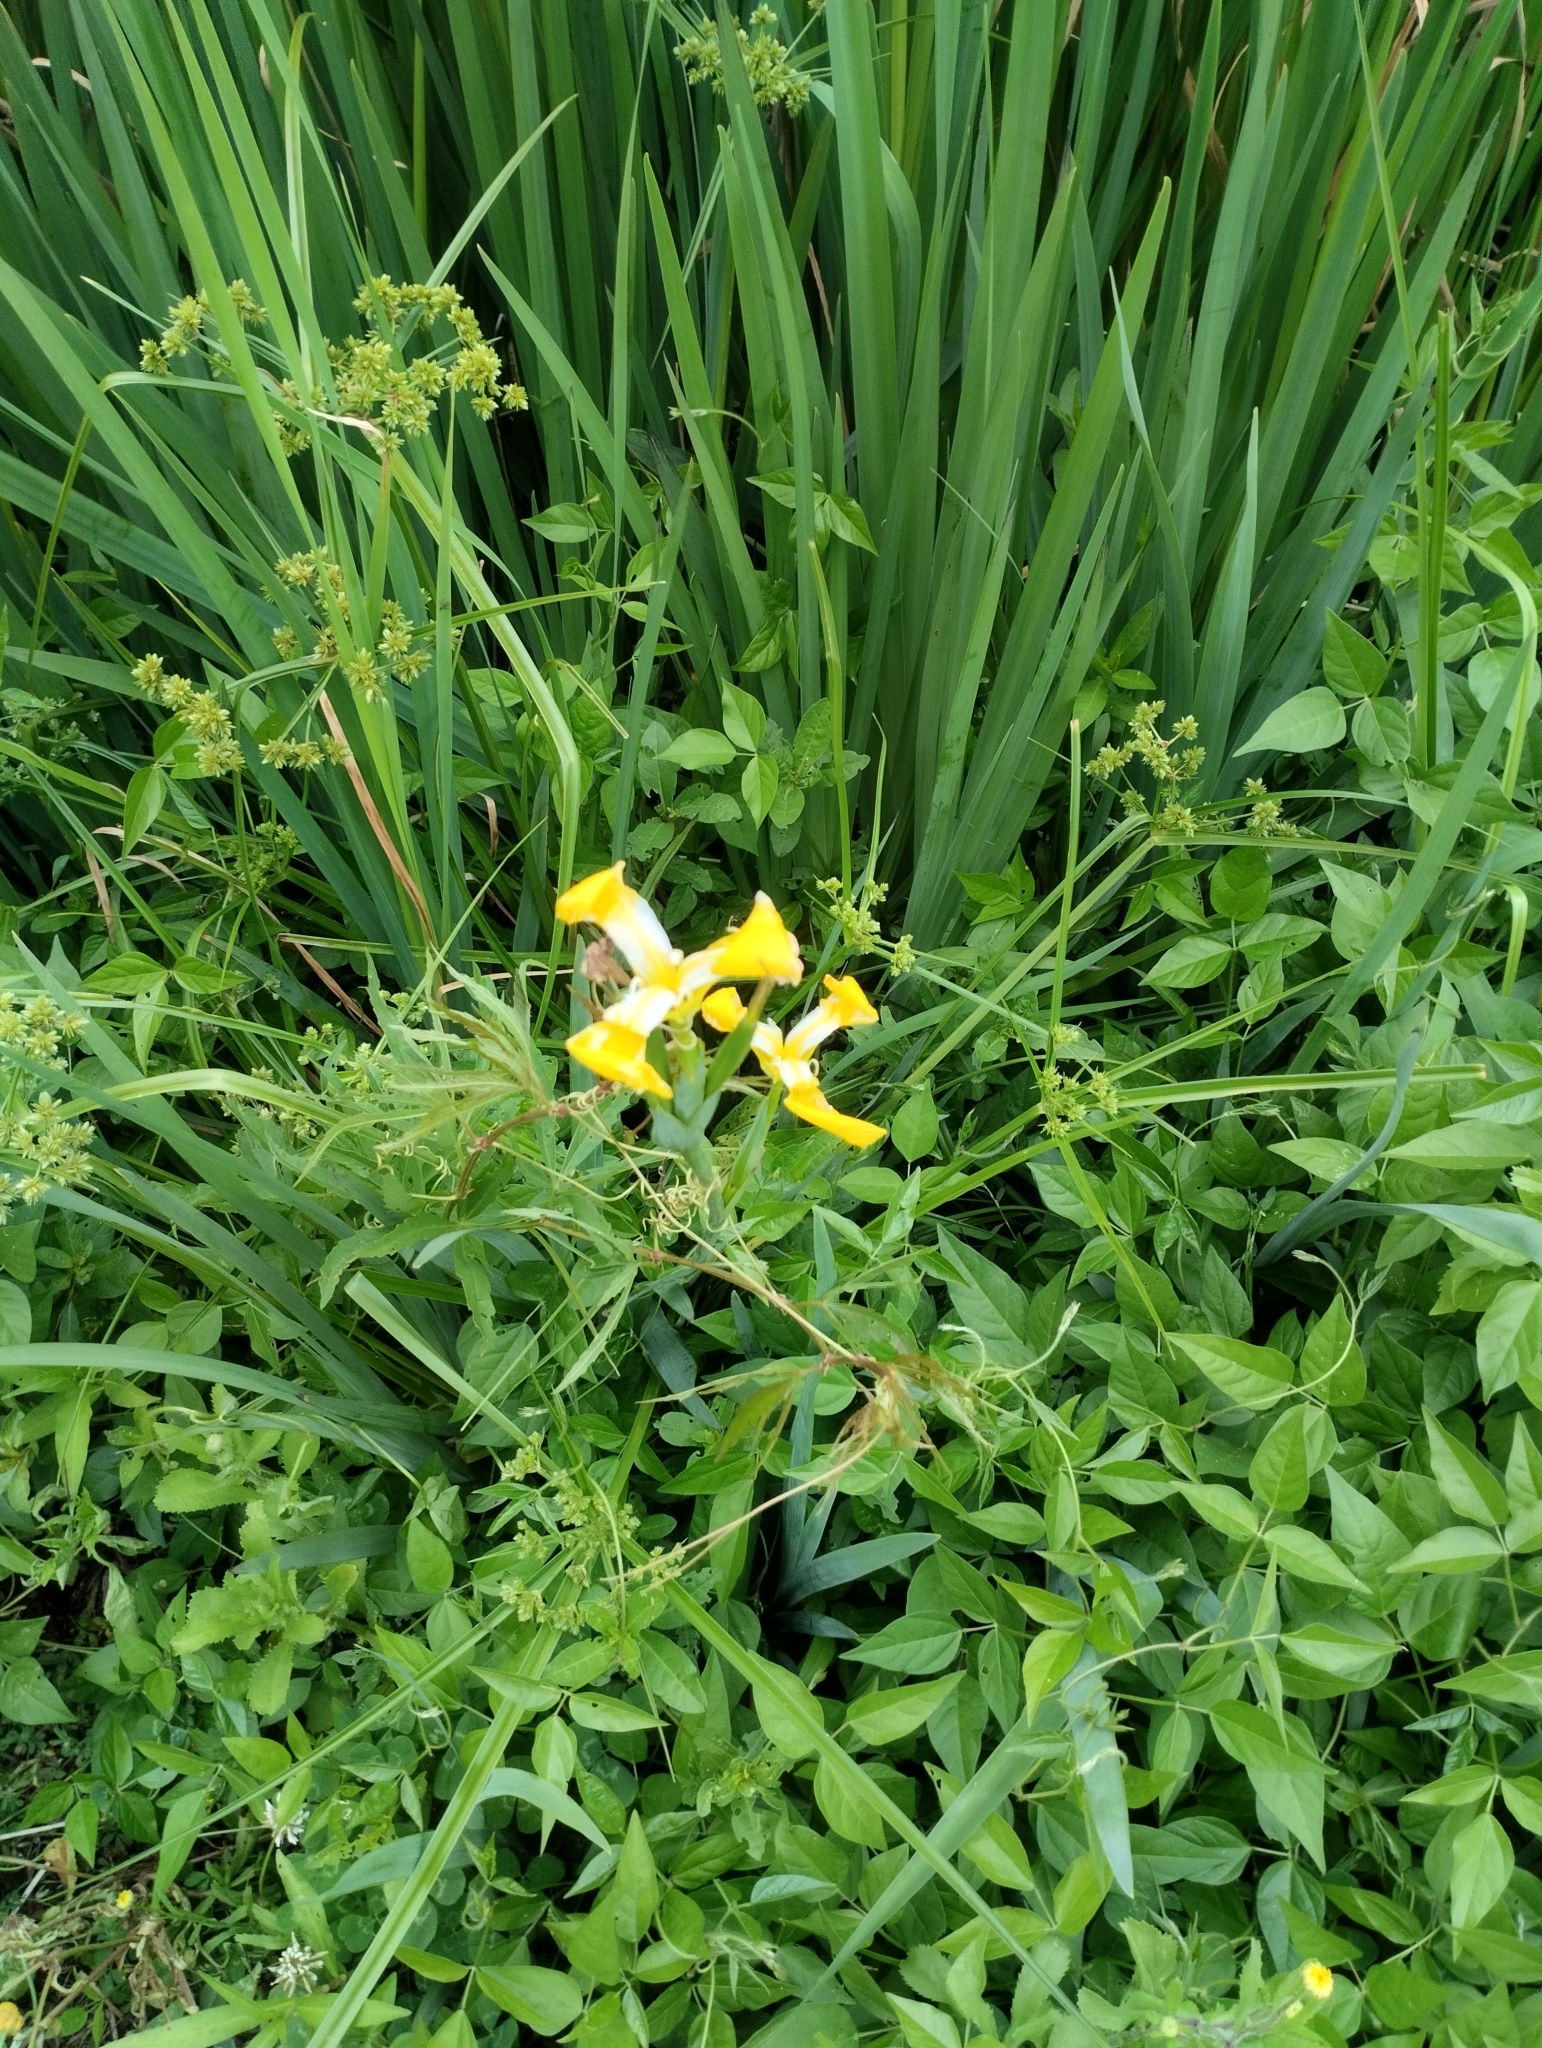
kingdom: Plantae
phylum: Tracheophyta
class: Liliopsida
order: Asparagales
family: Iridaceae
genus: Iris
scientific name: Iris pseudacorus
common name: Yellow flag
